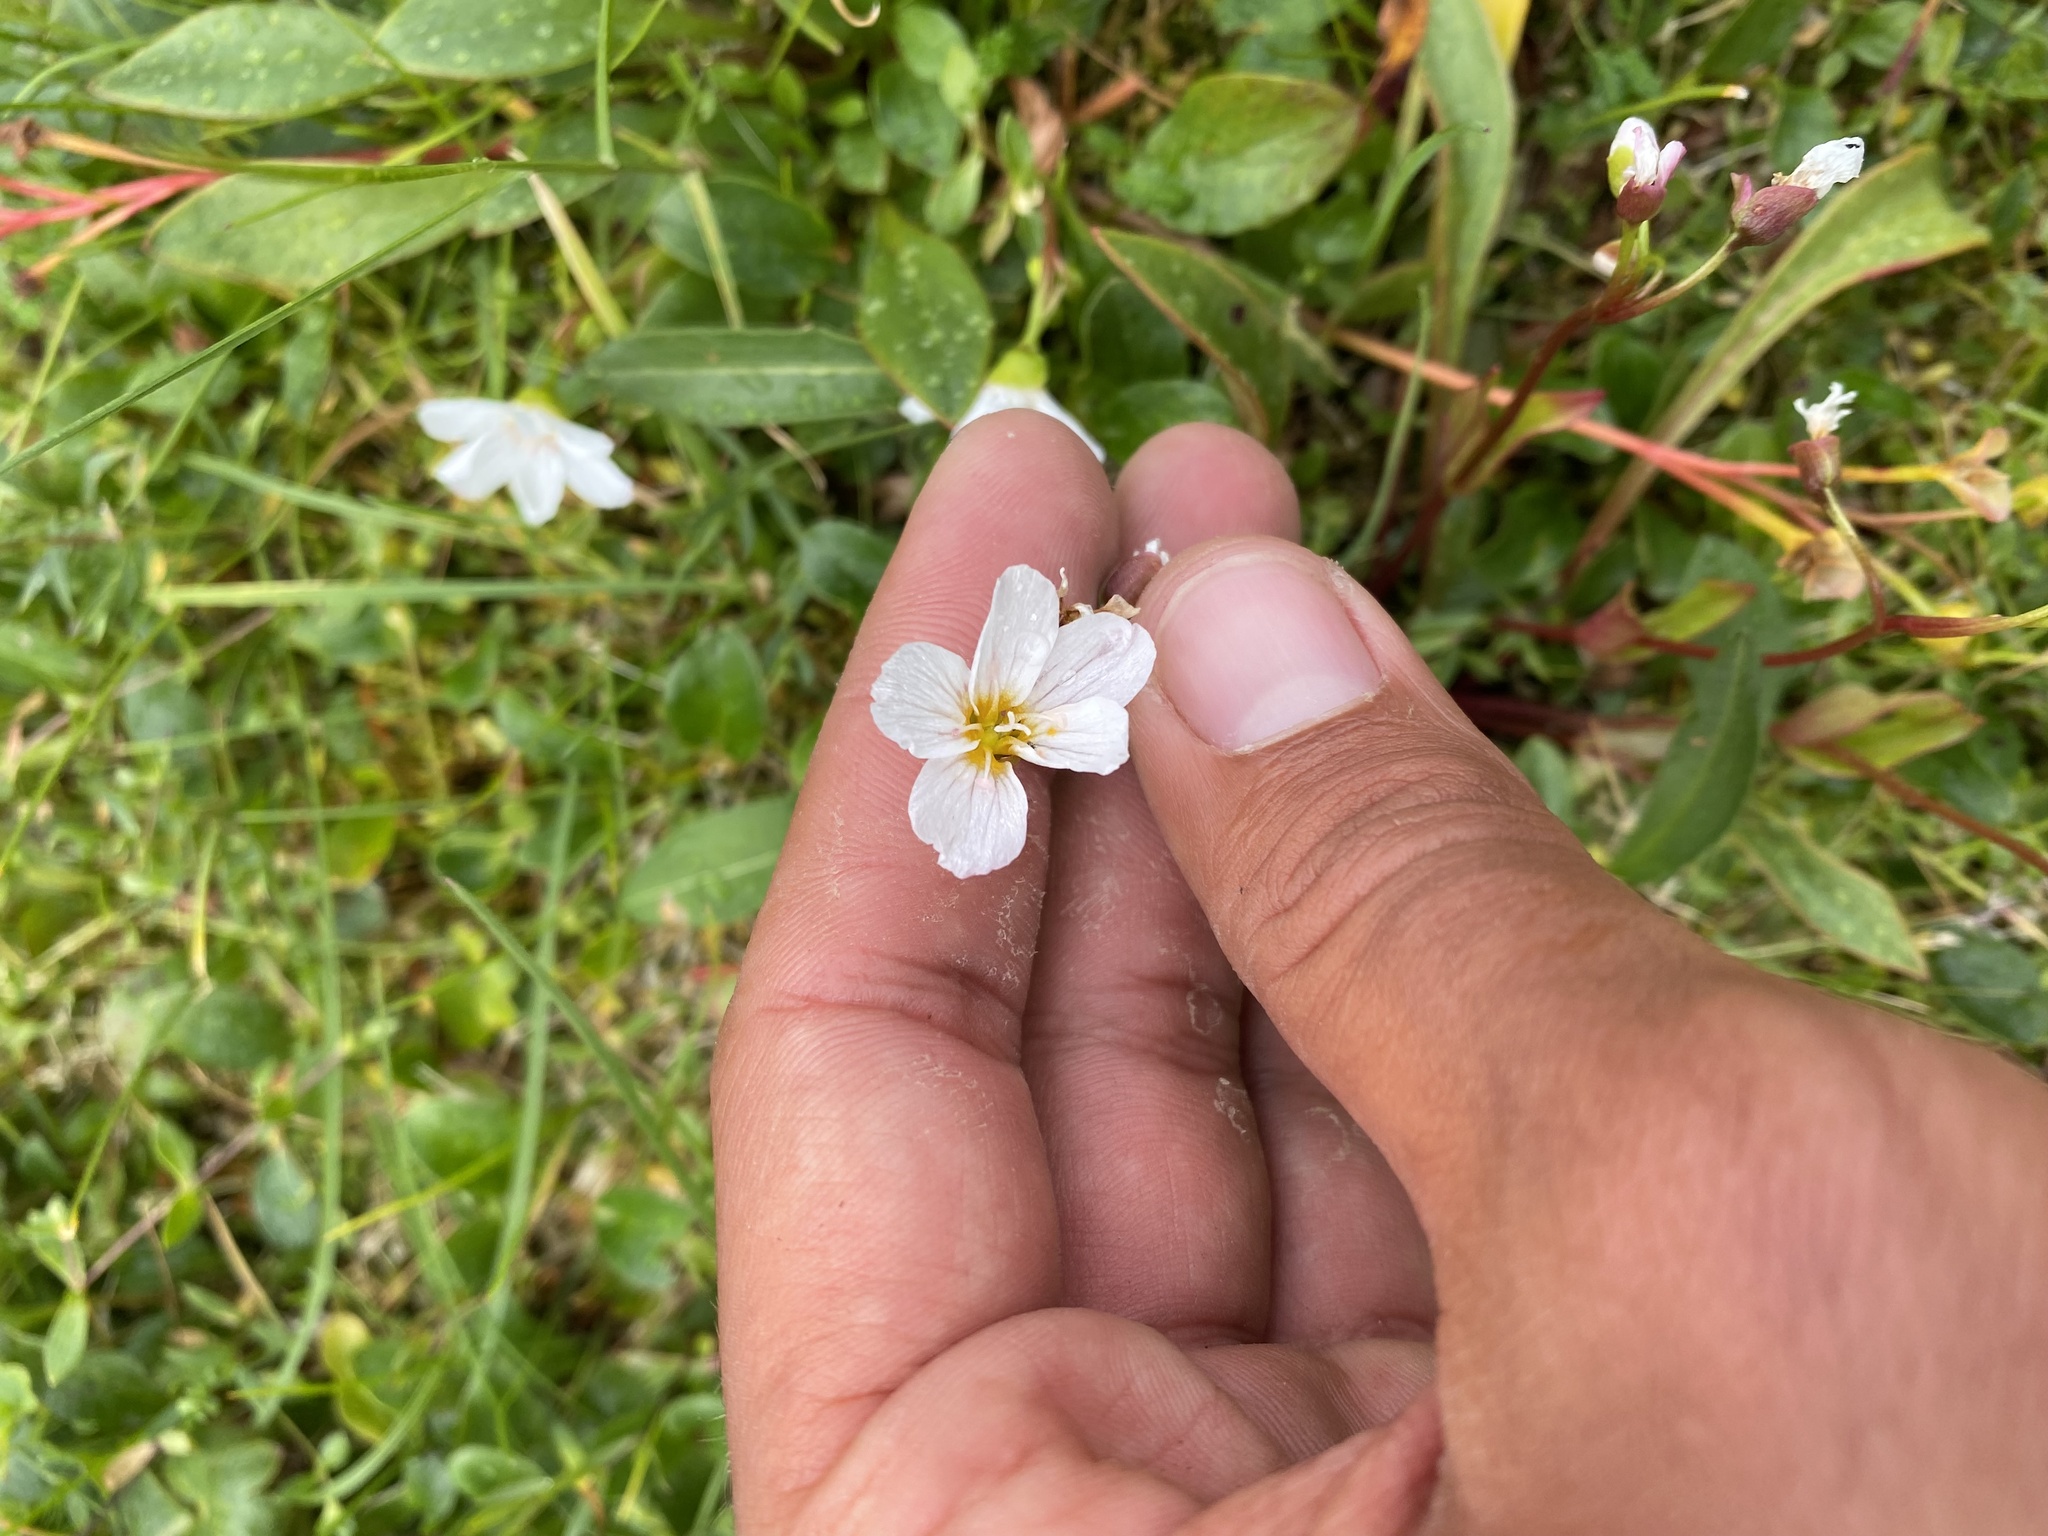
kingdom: Plantae
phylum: Tracheophyta
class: Magnoliopsida
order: Caryophyllales
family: Montiaceae
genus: Claytonia
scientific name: Claytonia joanneana
